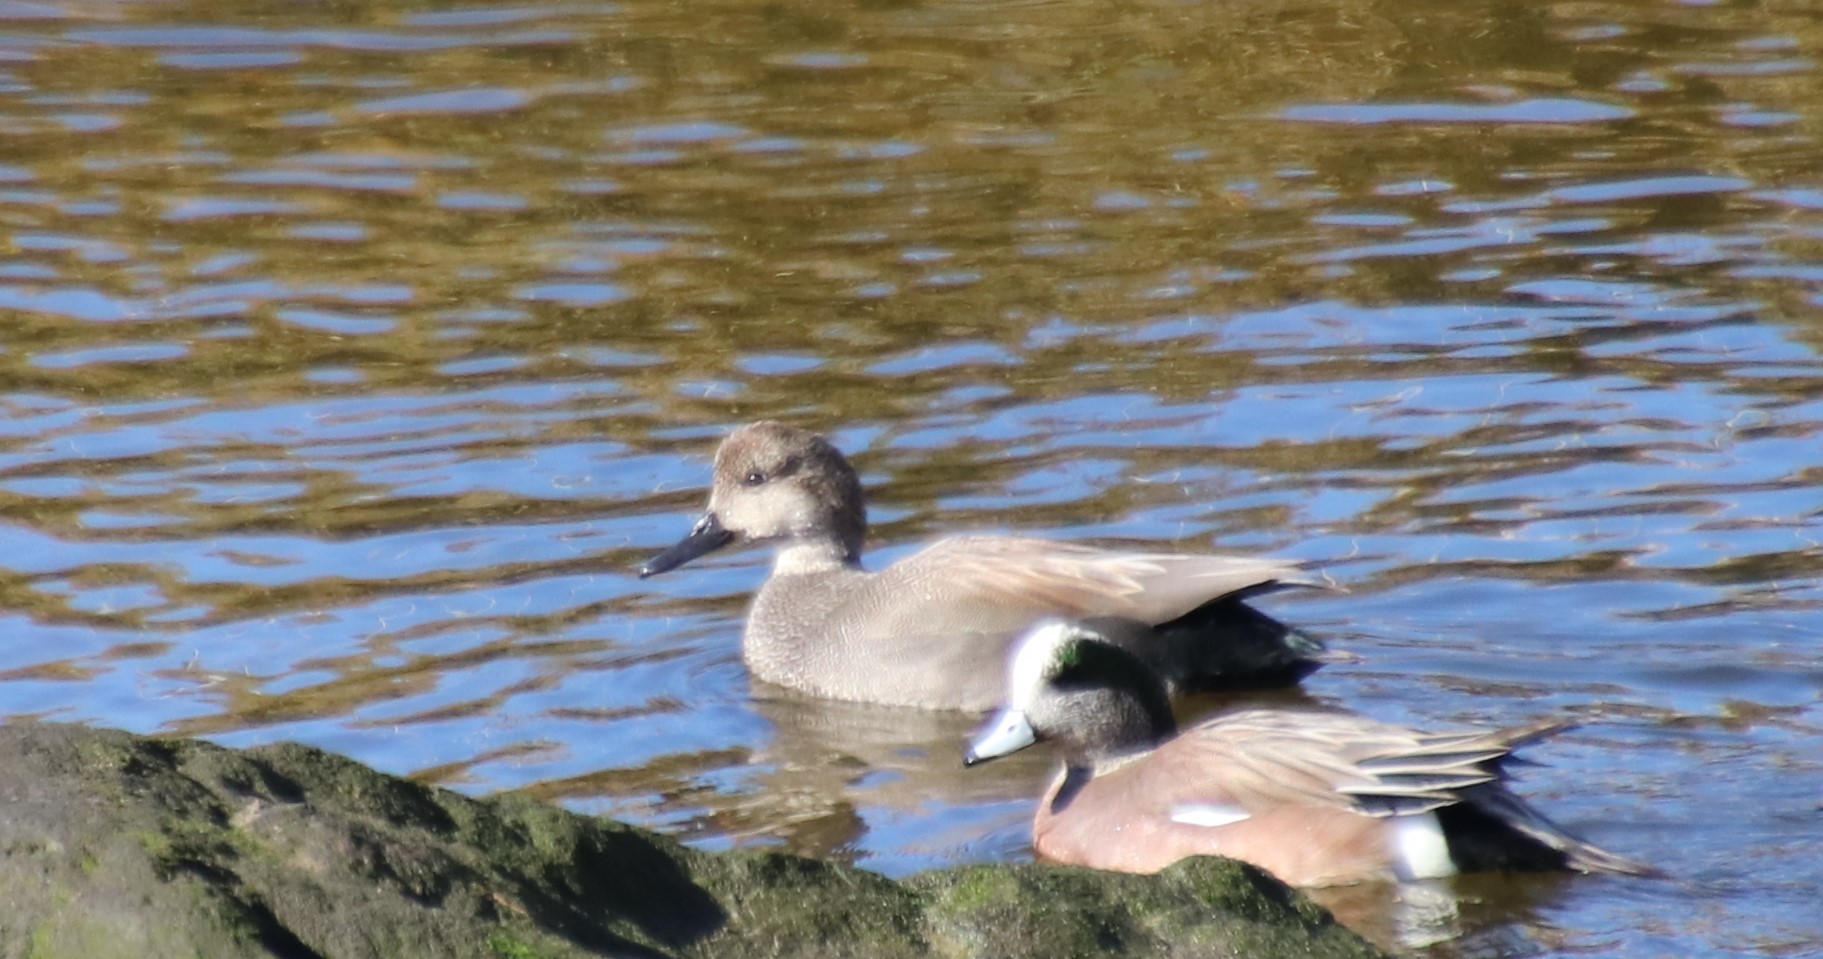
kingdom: Animalia
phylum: Chordata
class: Aves
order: Anseriformes
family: Anatidae
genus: Mareca
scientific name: Mareca strepera
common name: Gadwall
